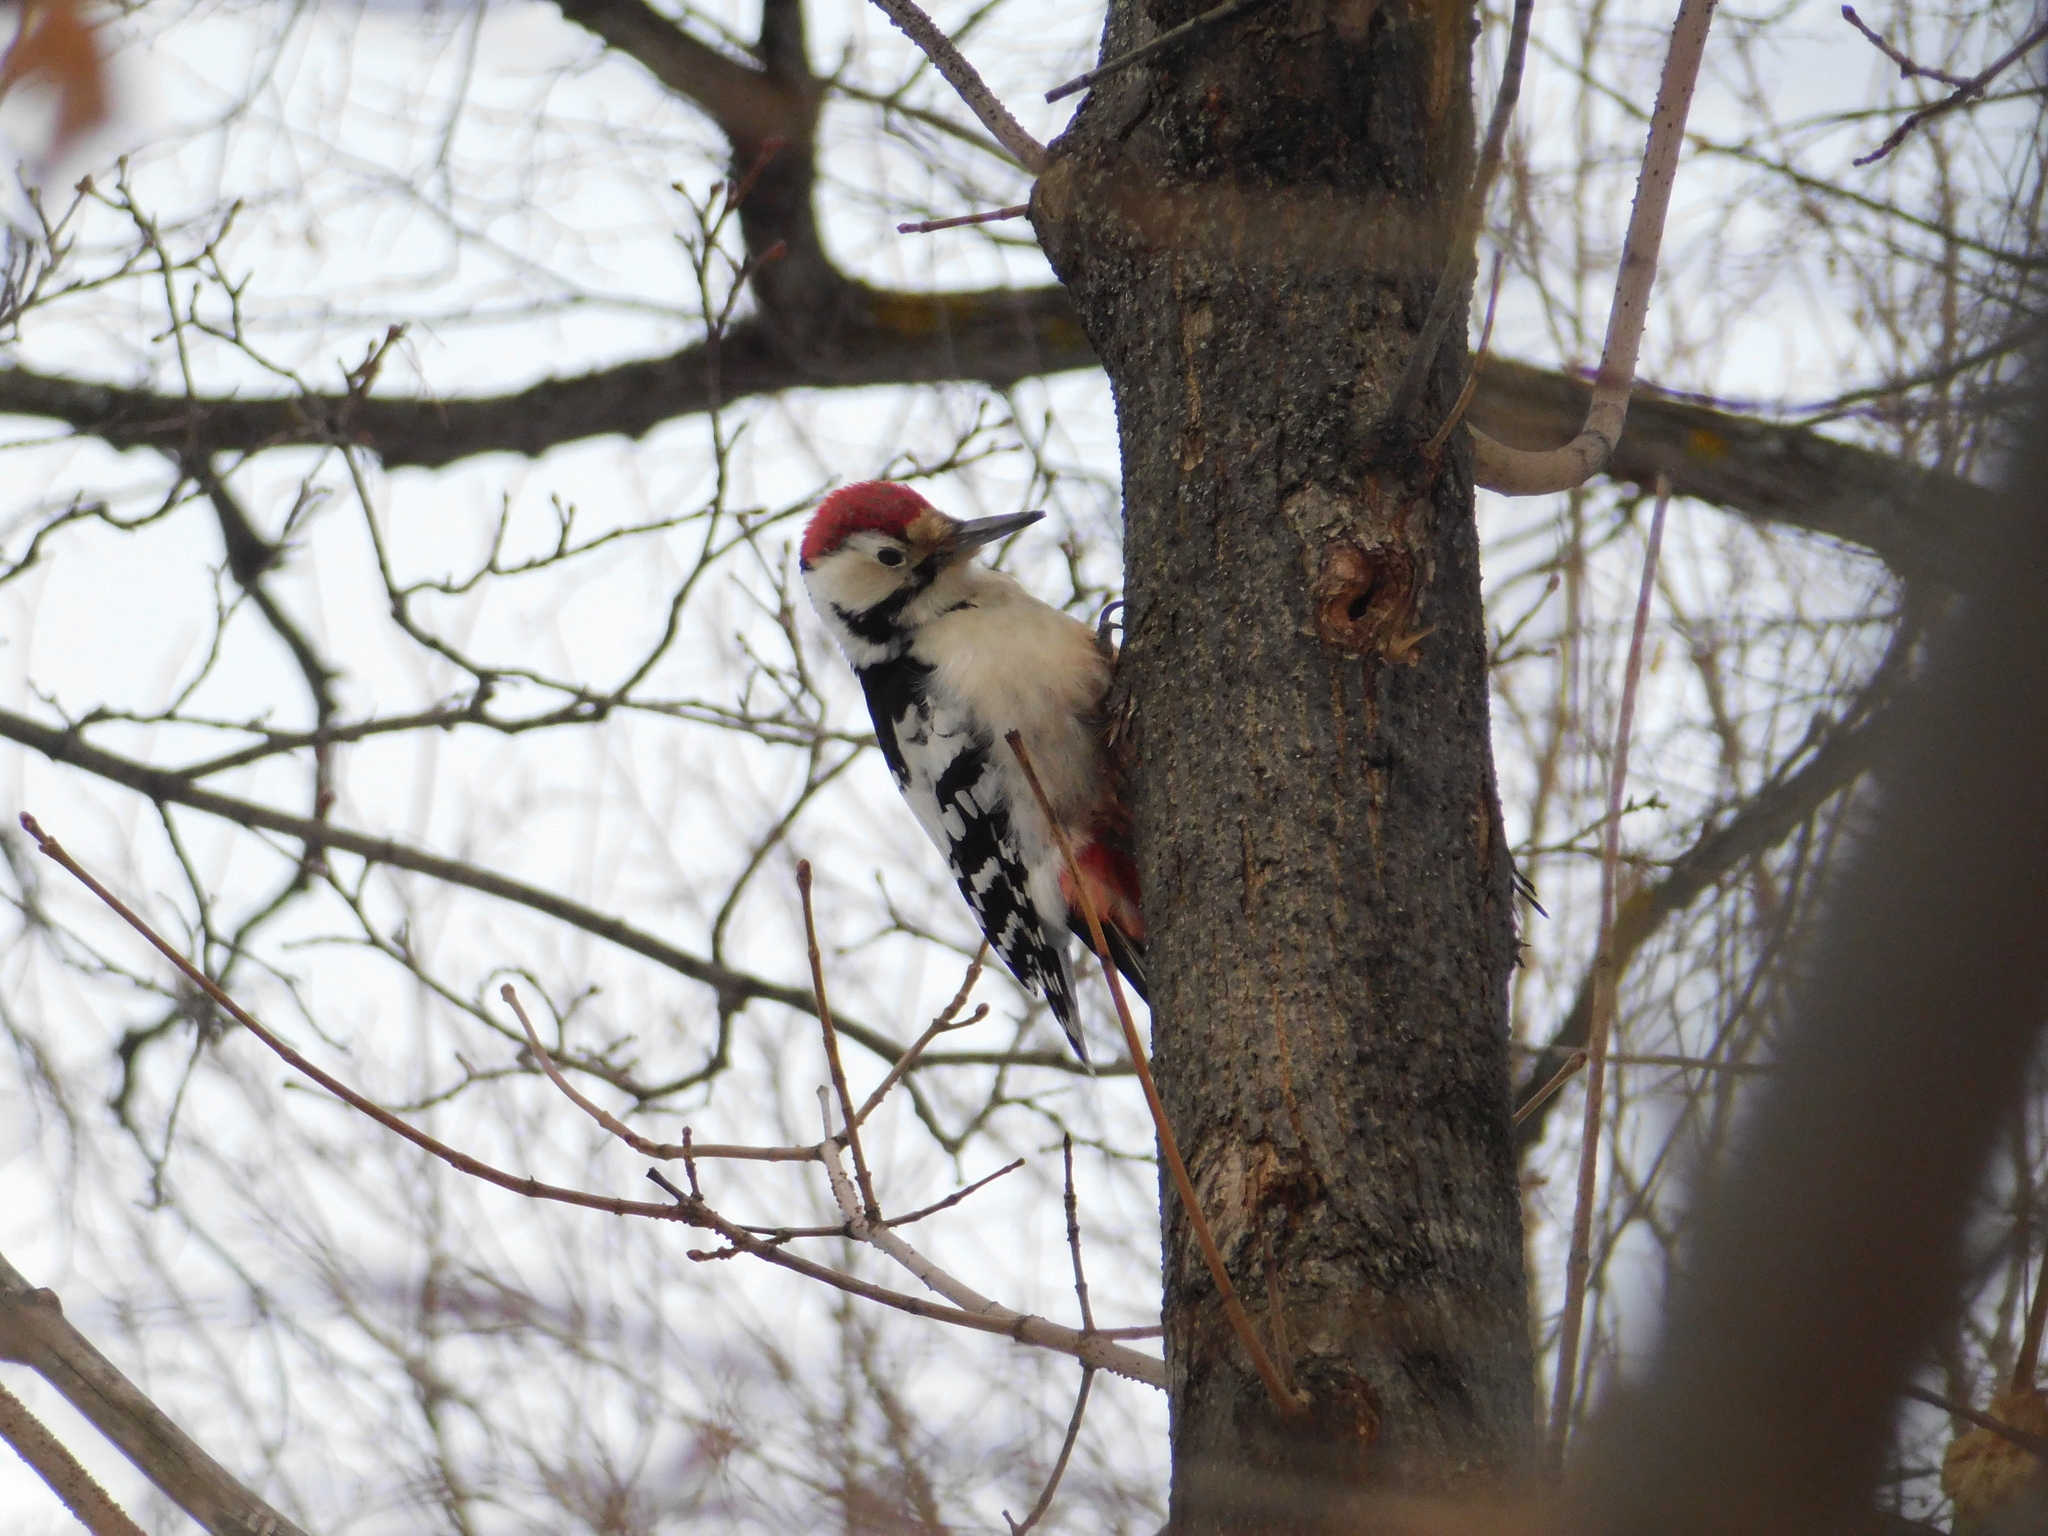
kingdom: Animalia
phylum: Chordata
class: Aves
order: Piciformes
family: Picidae
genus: Dendrocopos
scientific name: Dendrocopos leucotos
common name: White-backed woodpecker
